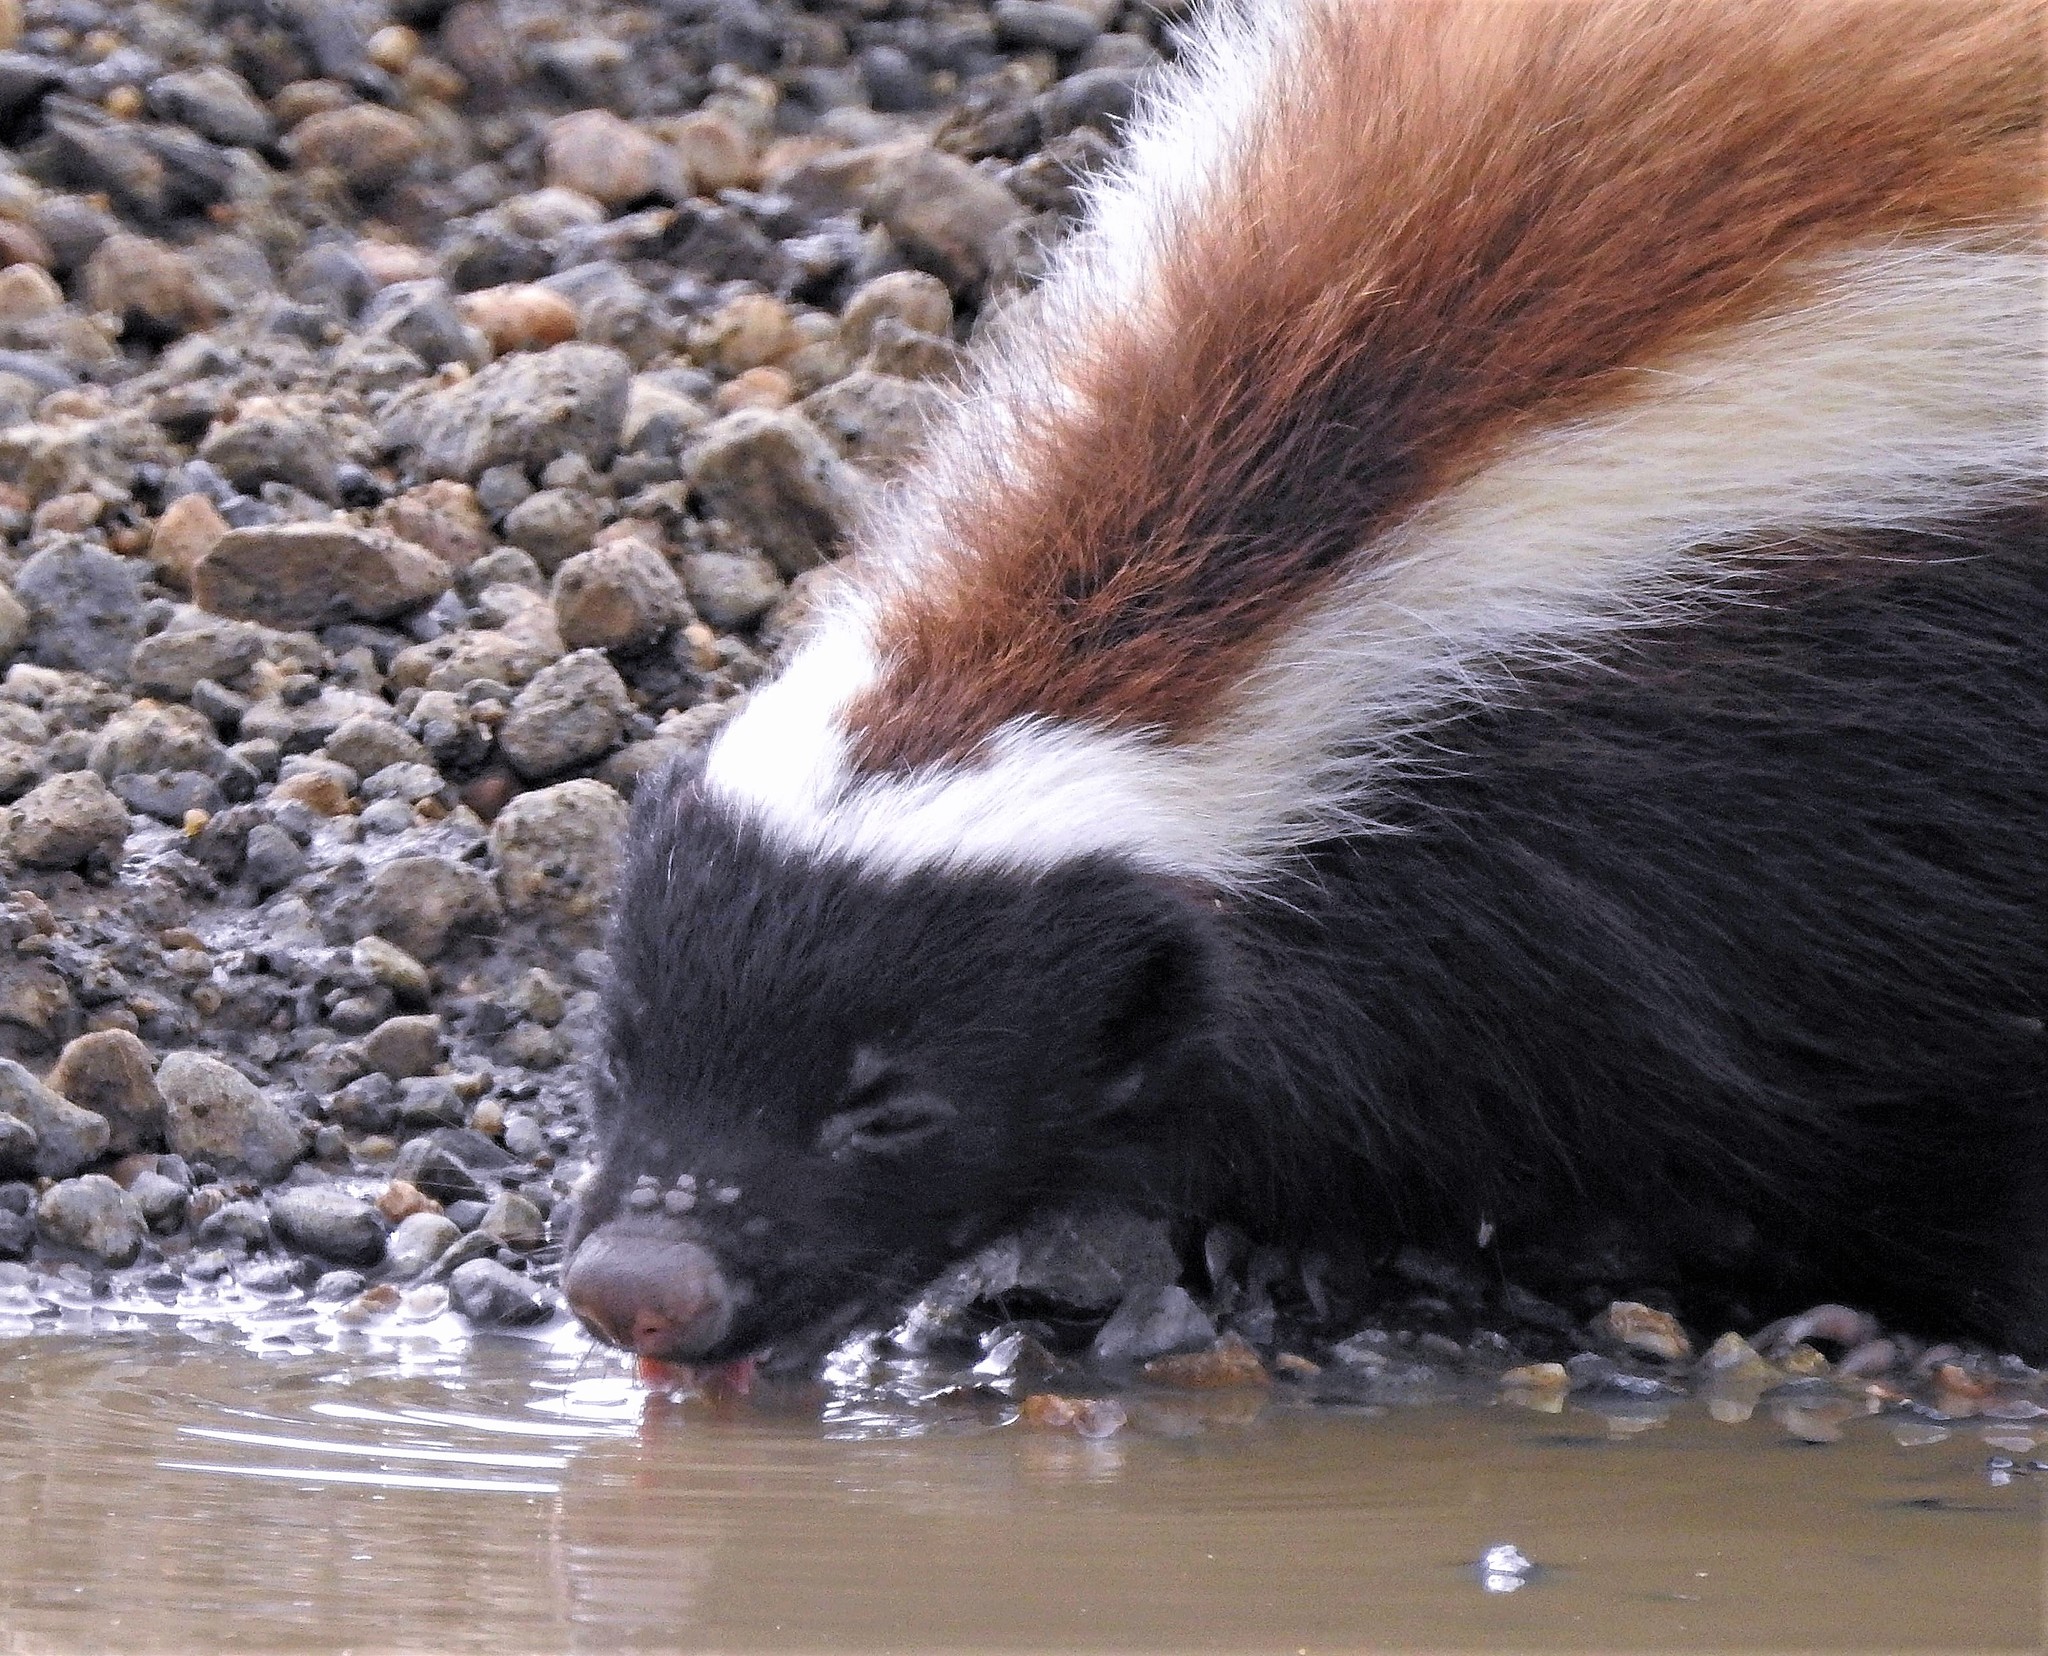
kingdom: Animalia
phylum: Chordata
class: Mammalia
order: Carnivora
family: Mephitidae
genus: Conepatus
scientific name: Conepatus chinga
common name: Molina's hog-nosed skunk
